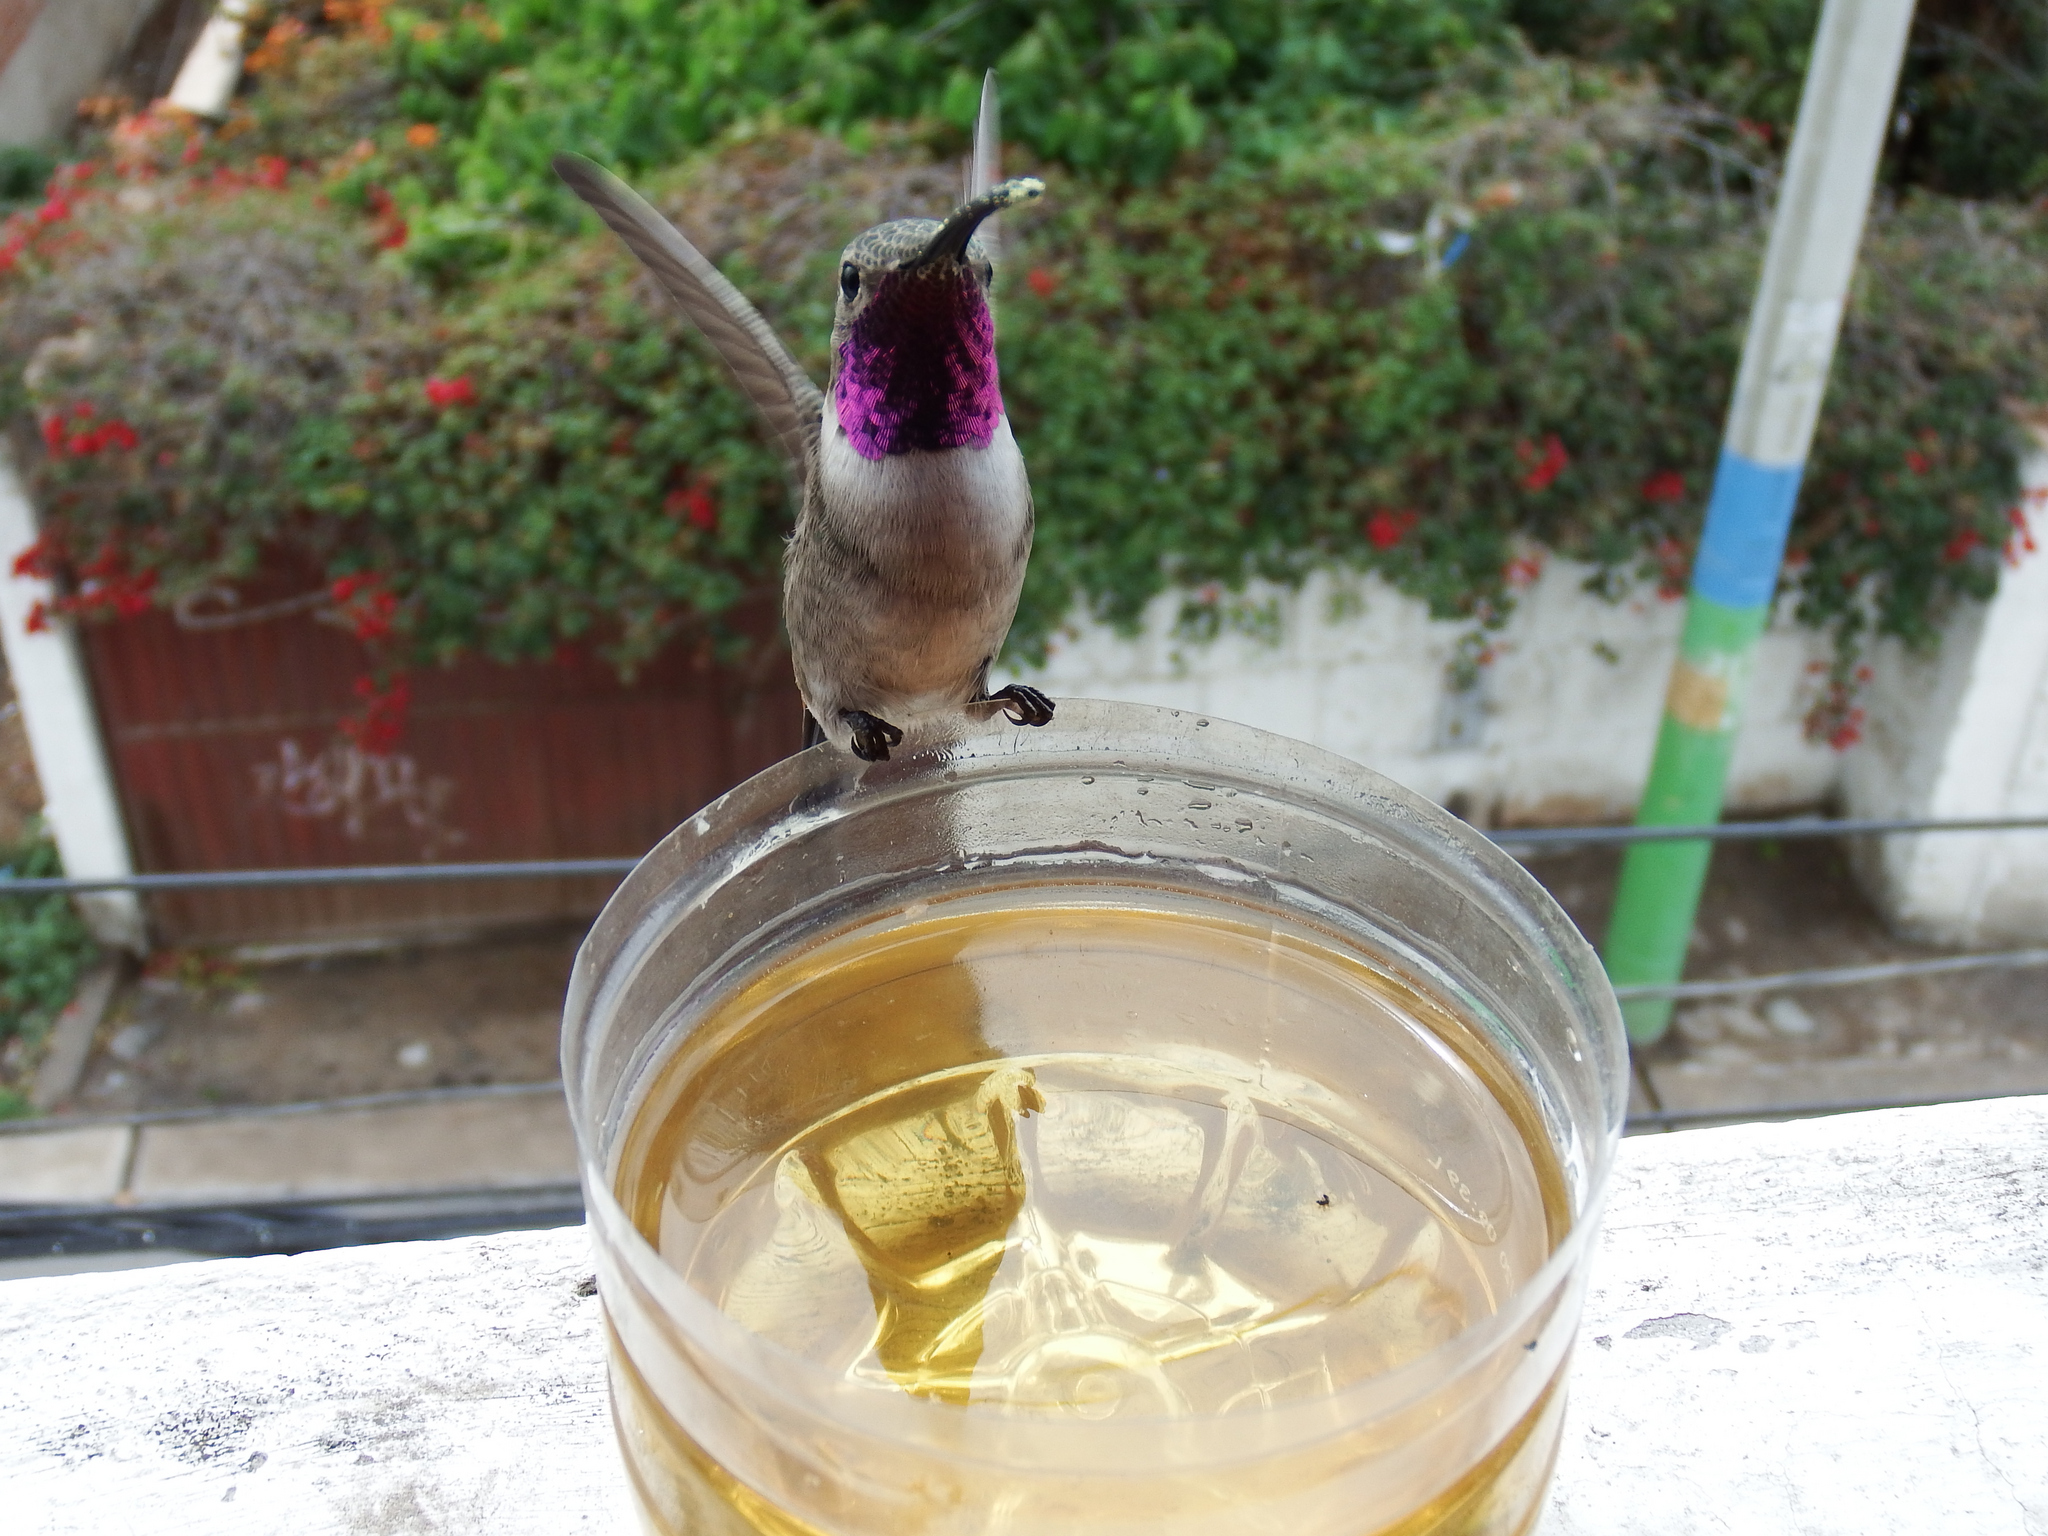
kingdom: Animalia
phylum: Chordata
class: Aves
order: Apodiformes
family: Trochilidae
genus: Rhodopis
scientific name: Rhodopis vesper
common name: Oasis hummingbird
